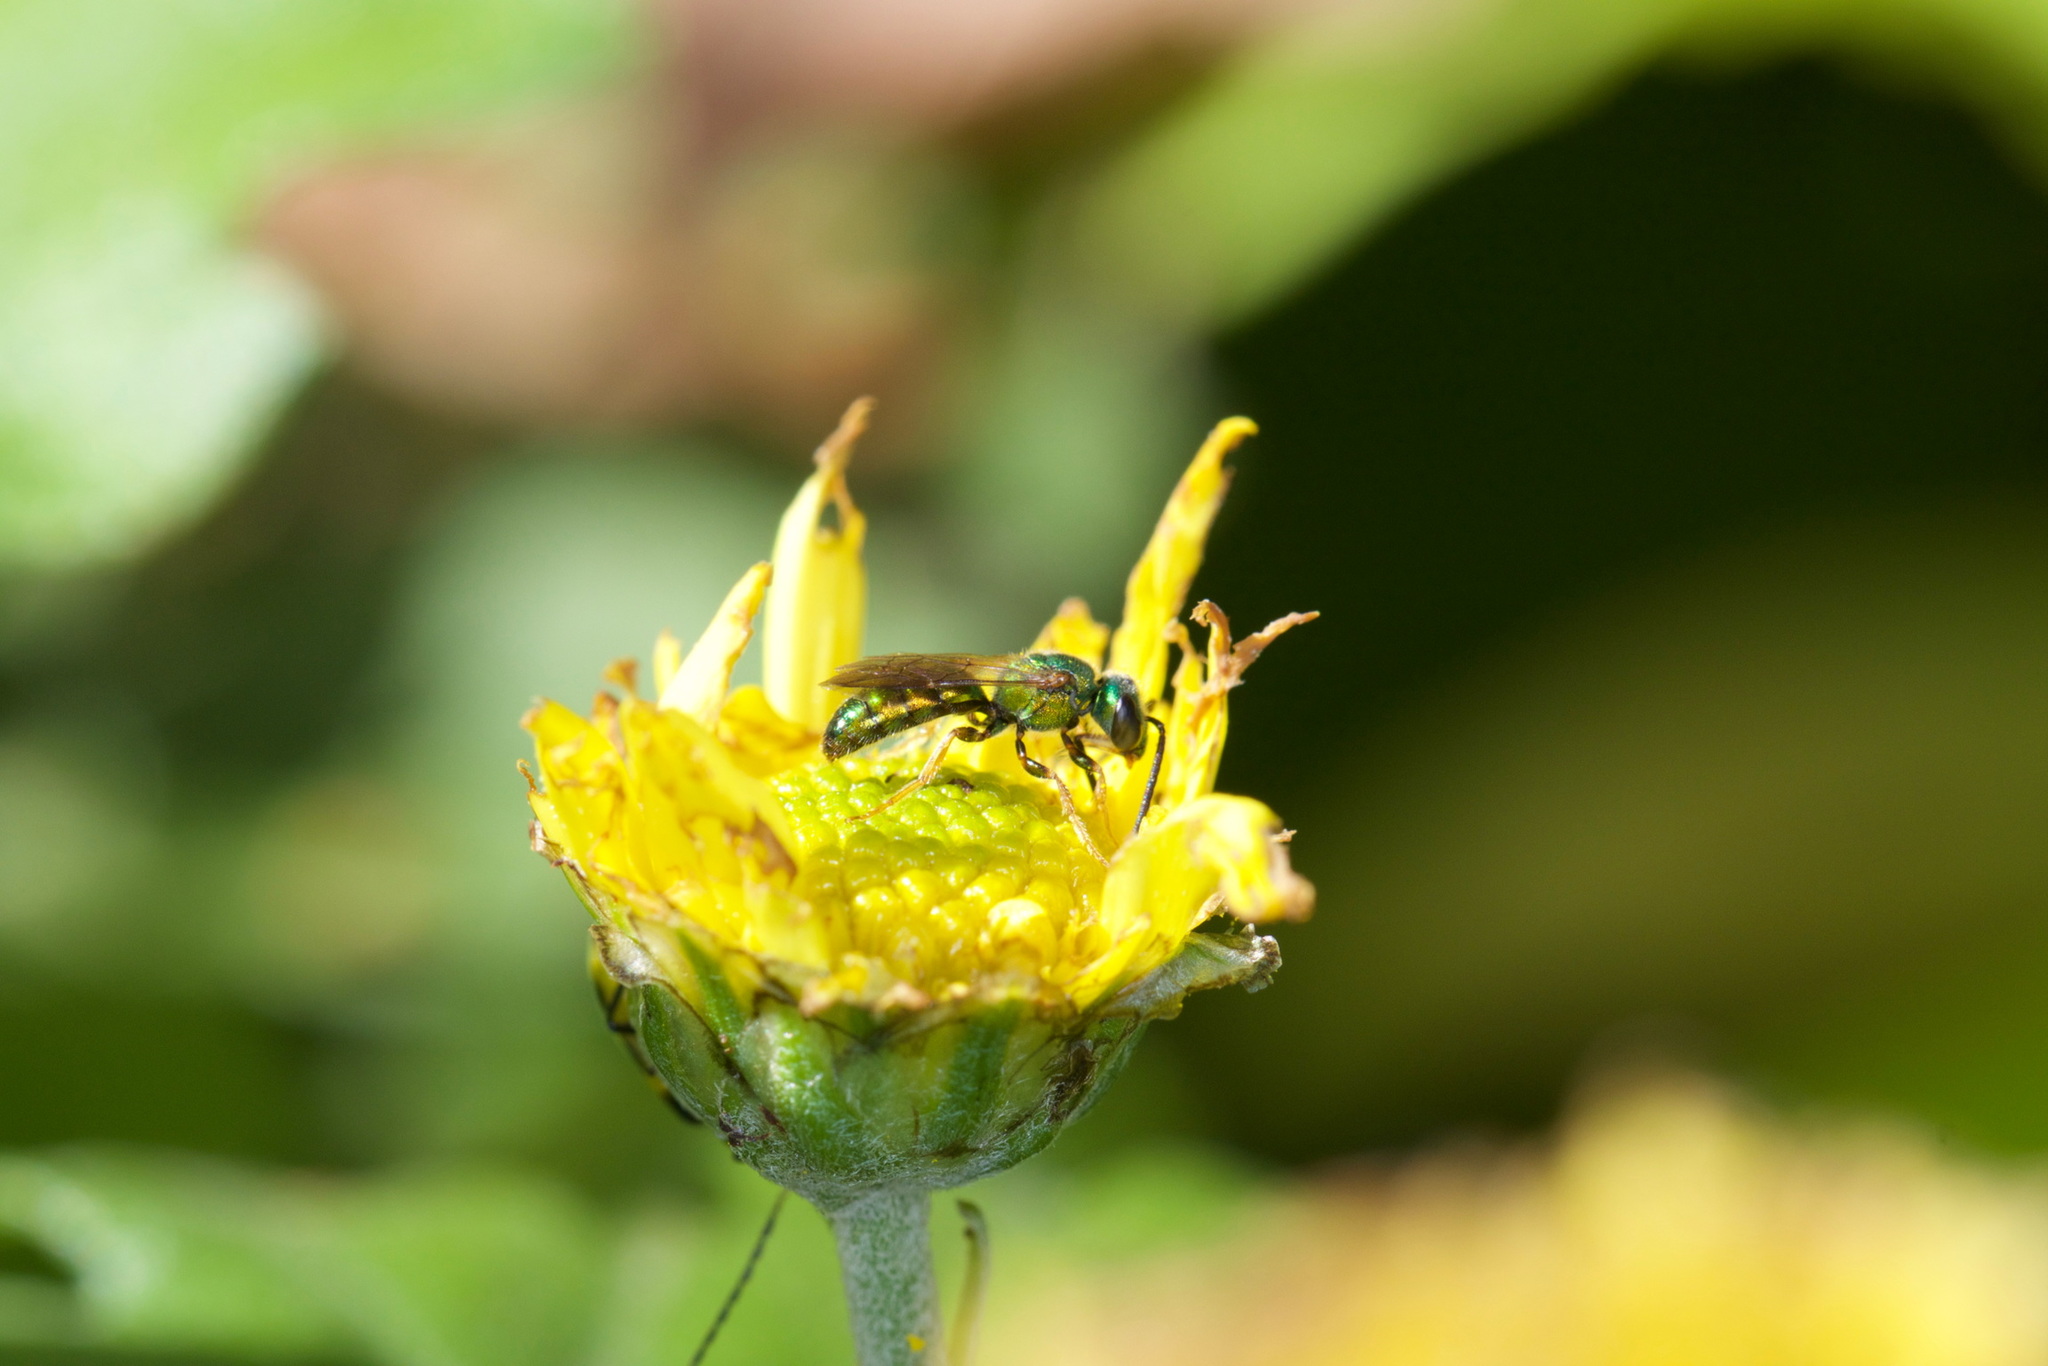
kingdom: Animalia
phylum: Arthropoda
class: Insecta
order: Hymenoptera
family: Halictidae
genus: Augochlora
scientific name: Augochlora pura
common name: Pure green sweat bee
